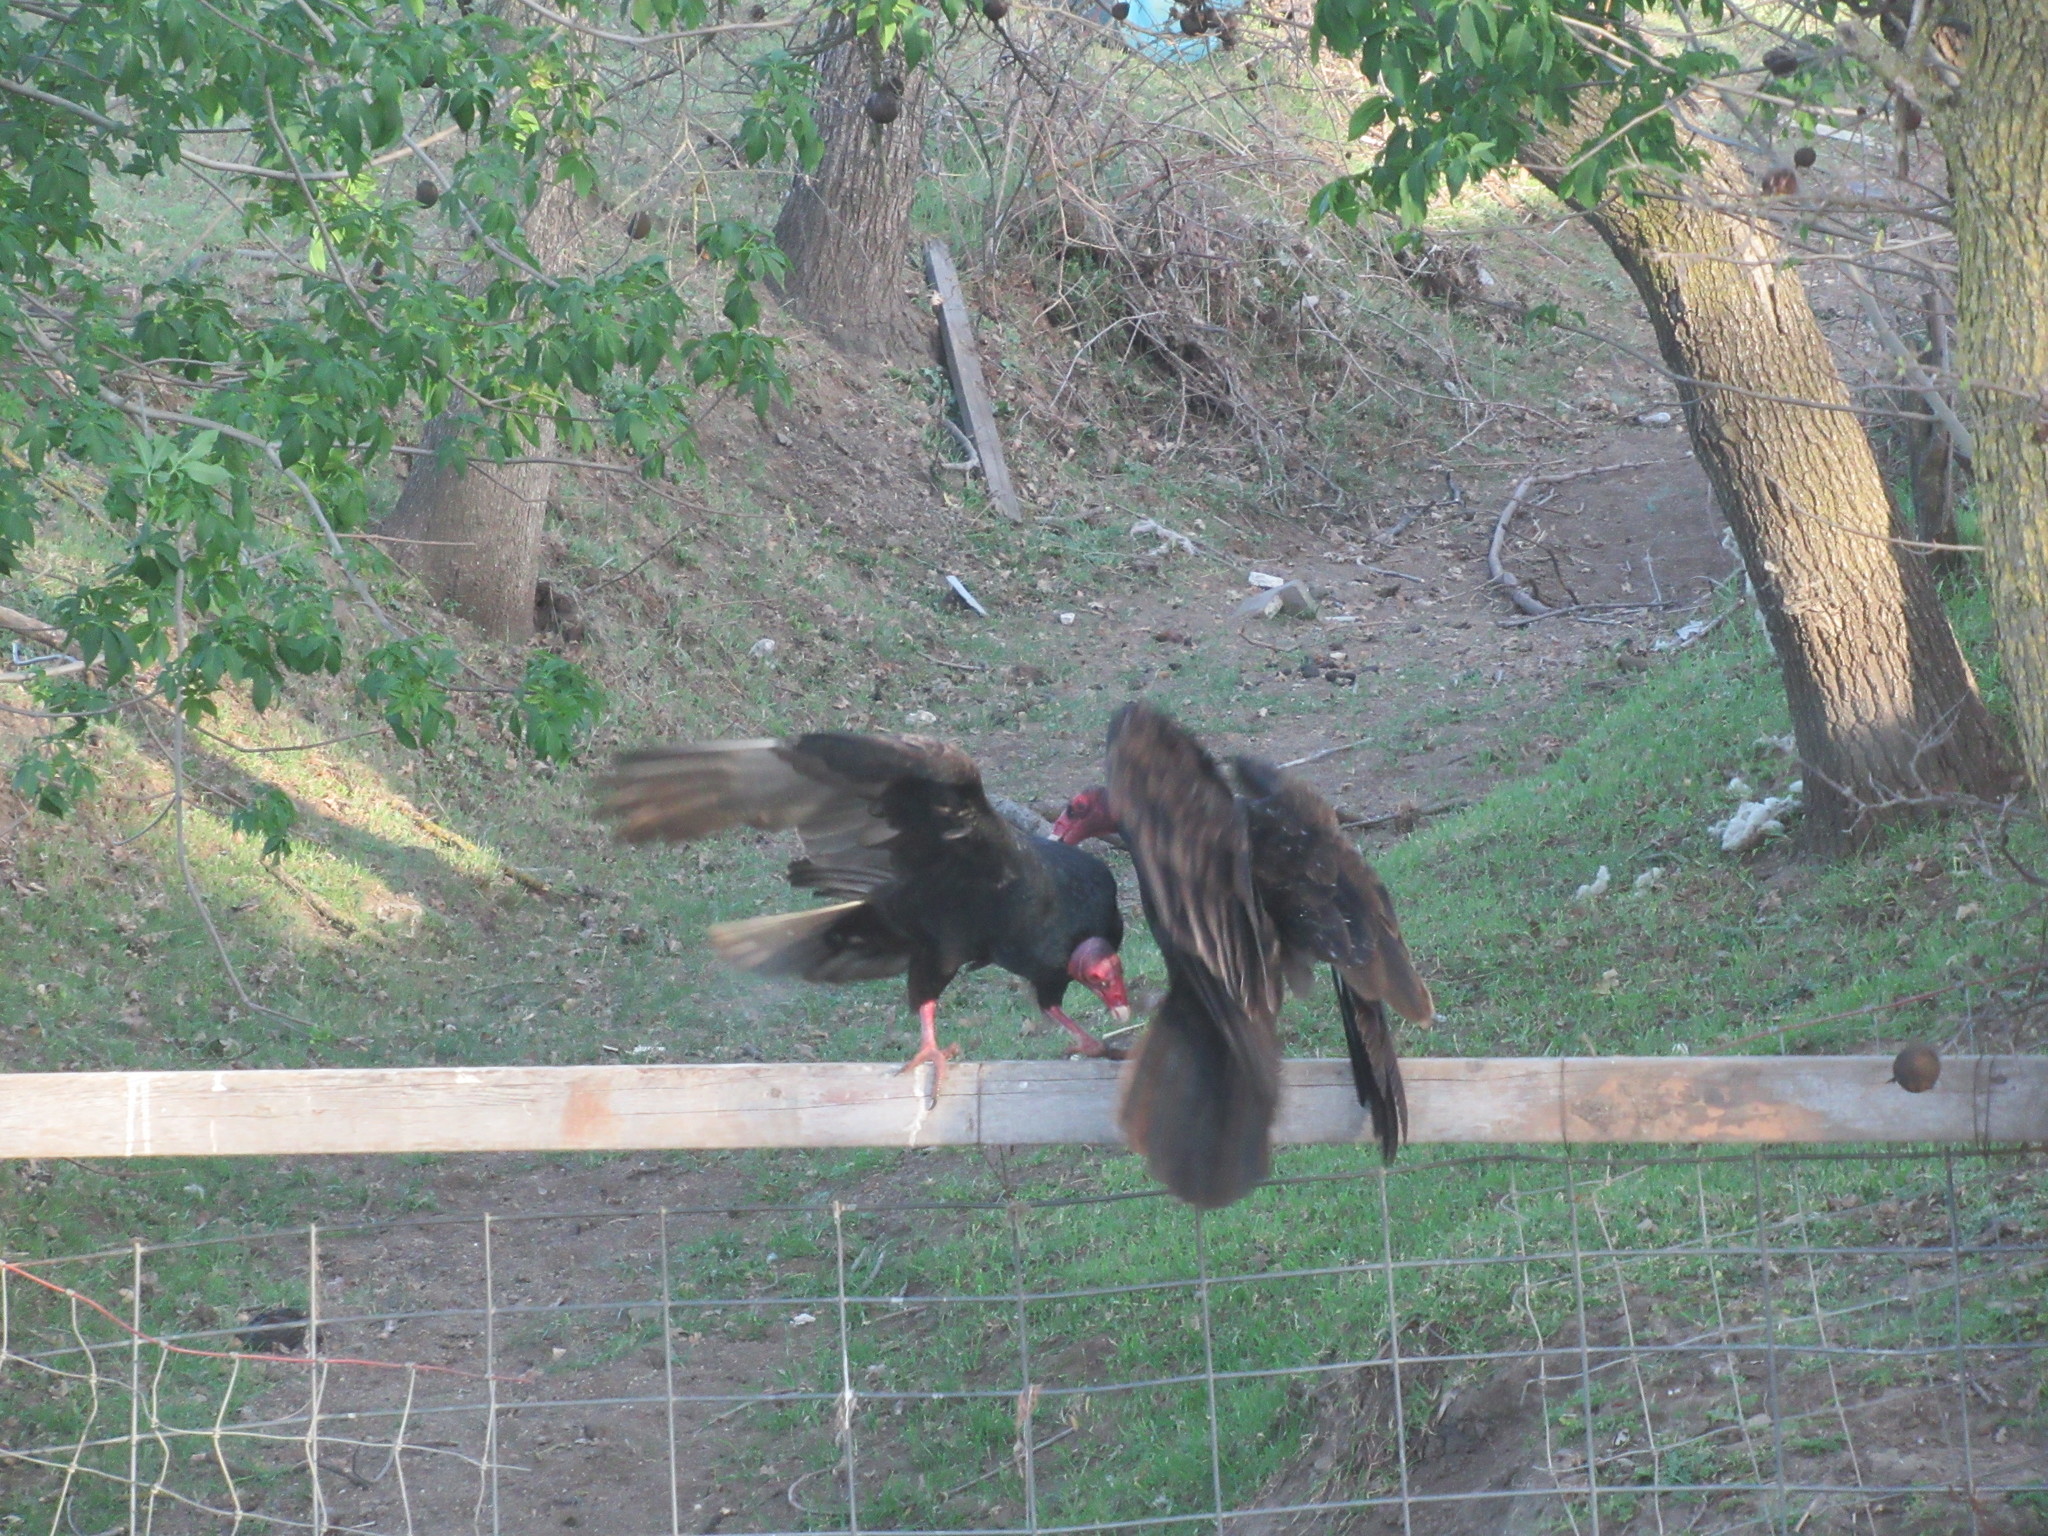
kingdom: Animalia
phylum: Chordata
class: Aves
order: Accipitriformes
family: Cathartidae
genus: Cathartes
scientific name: Cathartes aura
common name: Turkey vulture
